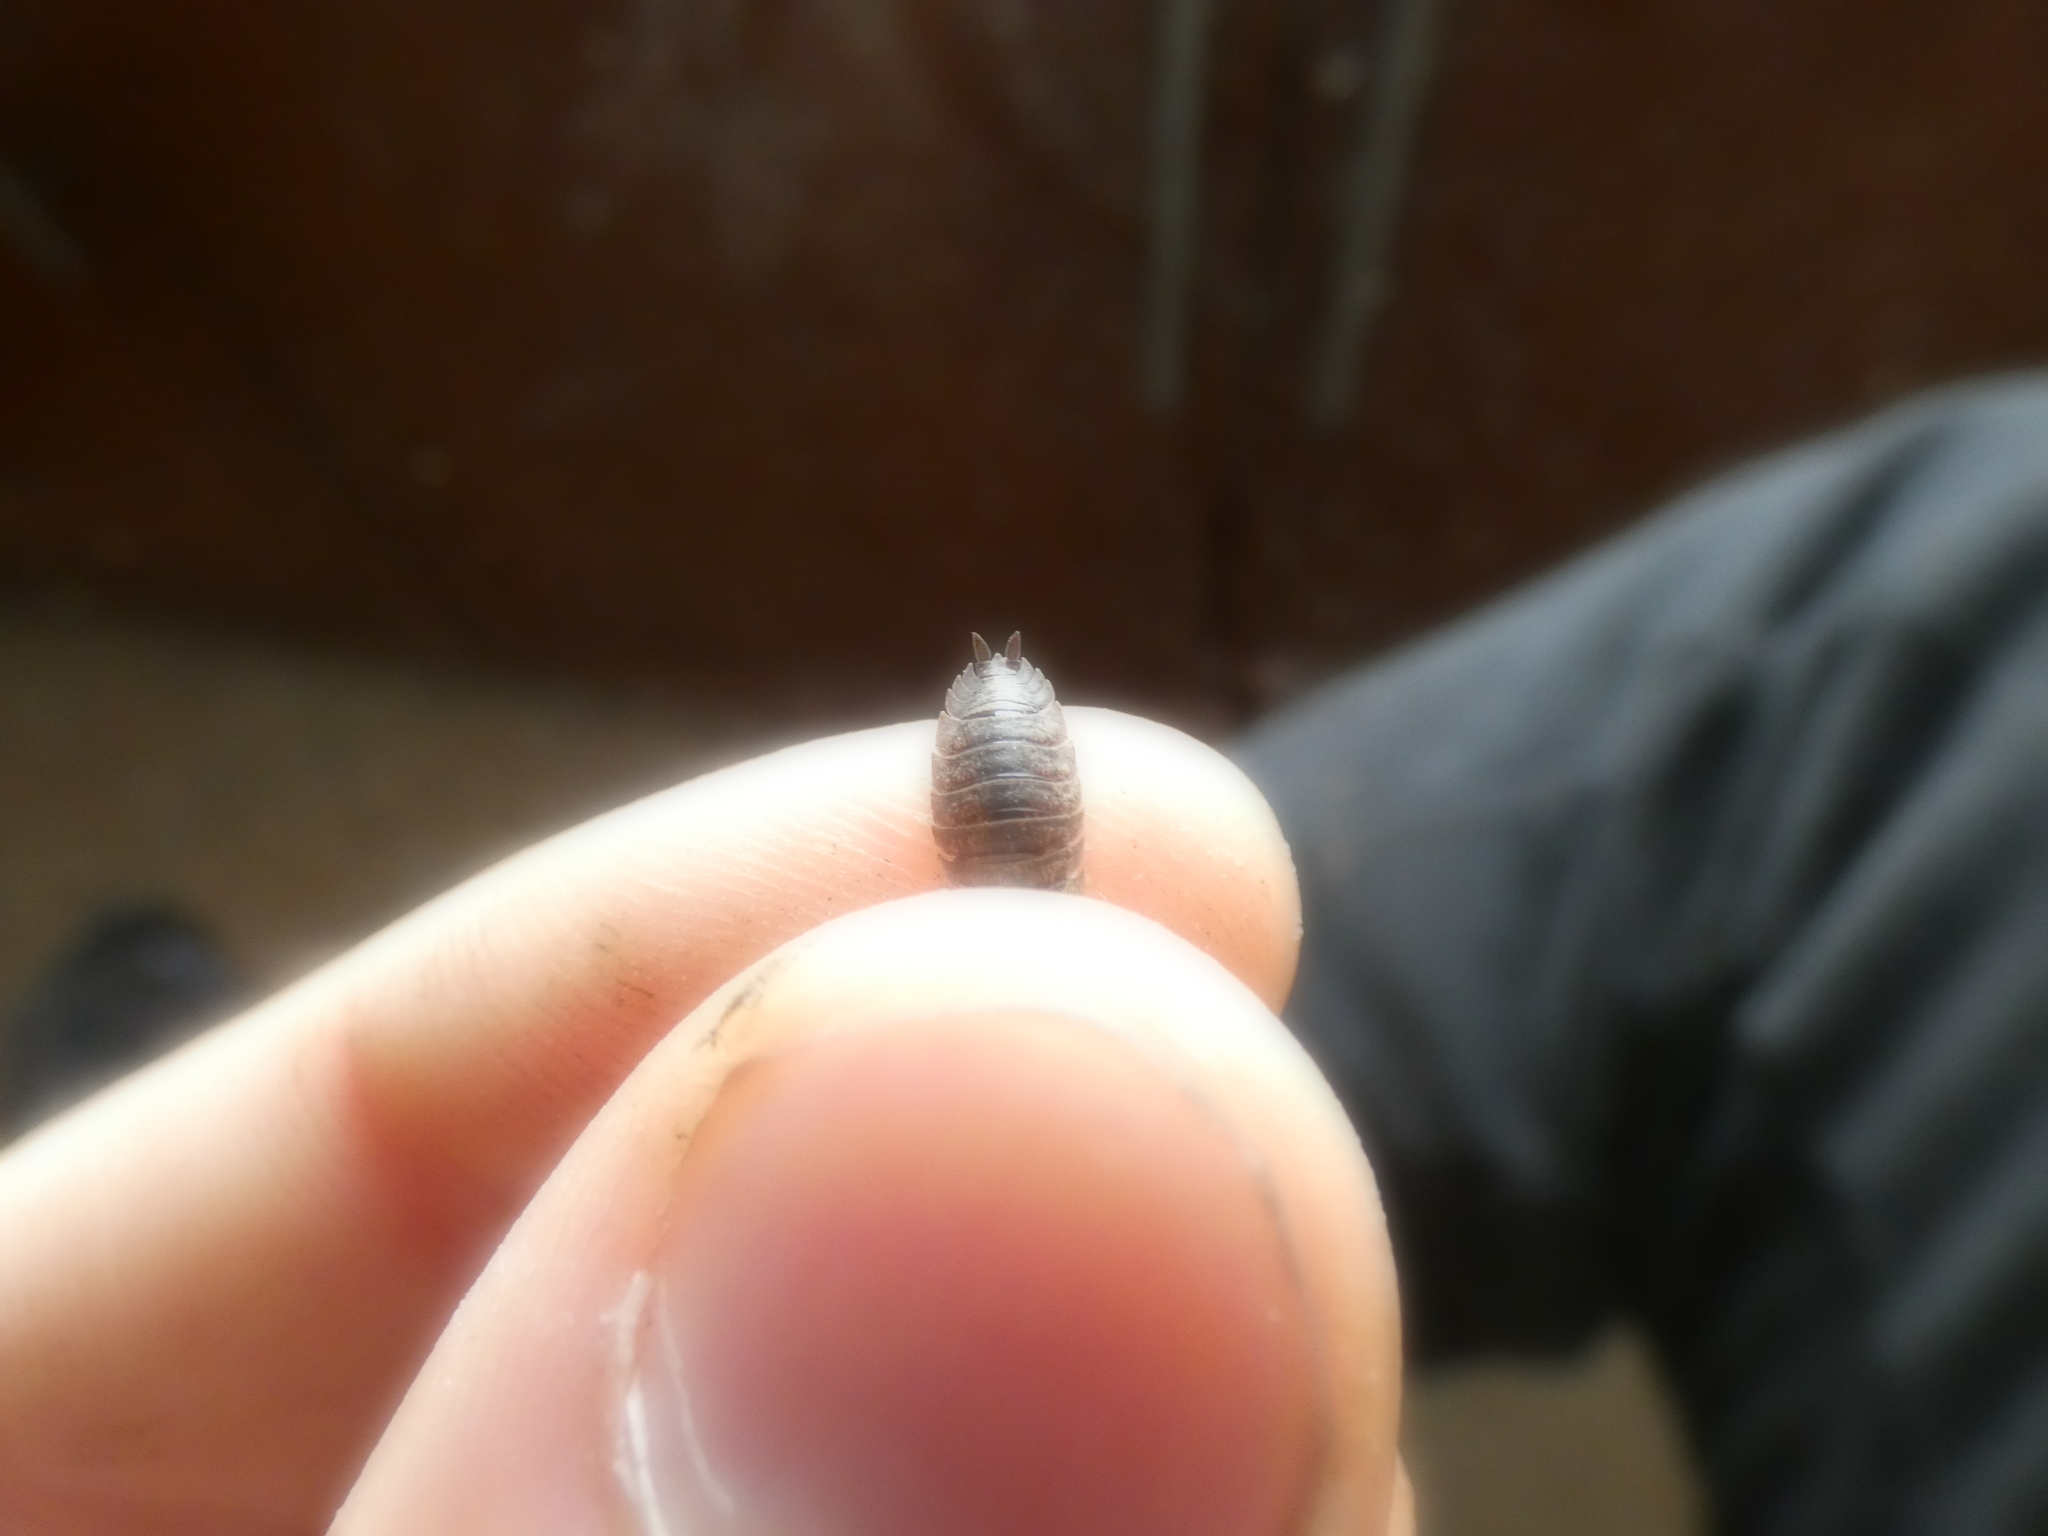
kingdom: Animalia
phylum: Arthropoda
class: Malacostraca
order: Isopoda
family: Porcellionidae
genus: Porcellio
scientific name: Porcellio scaber
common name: Common rough woodlouse
